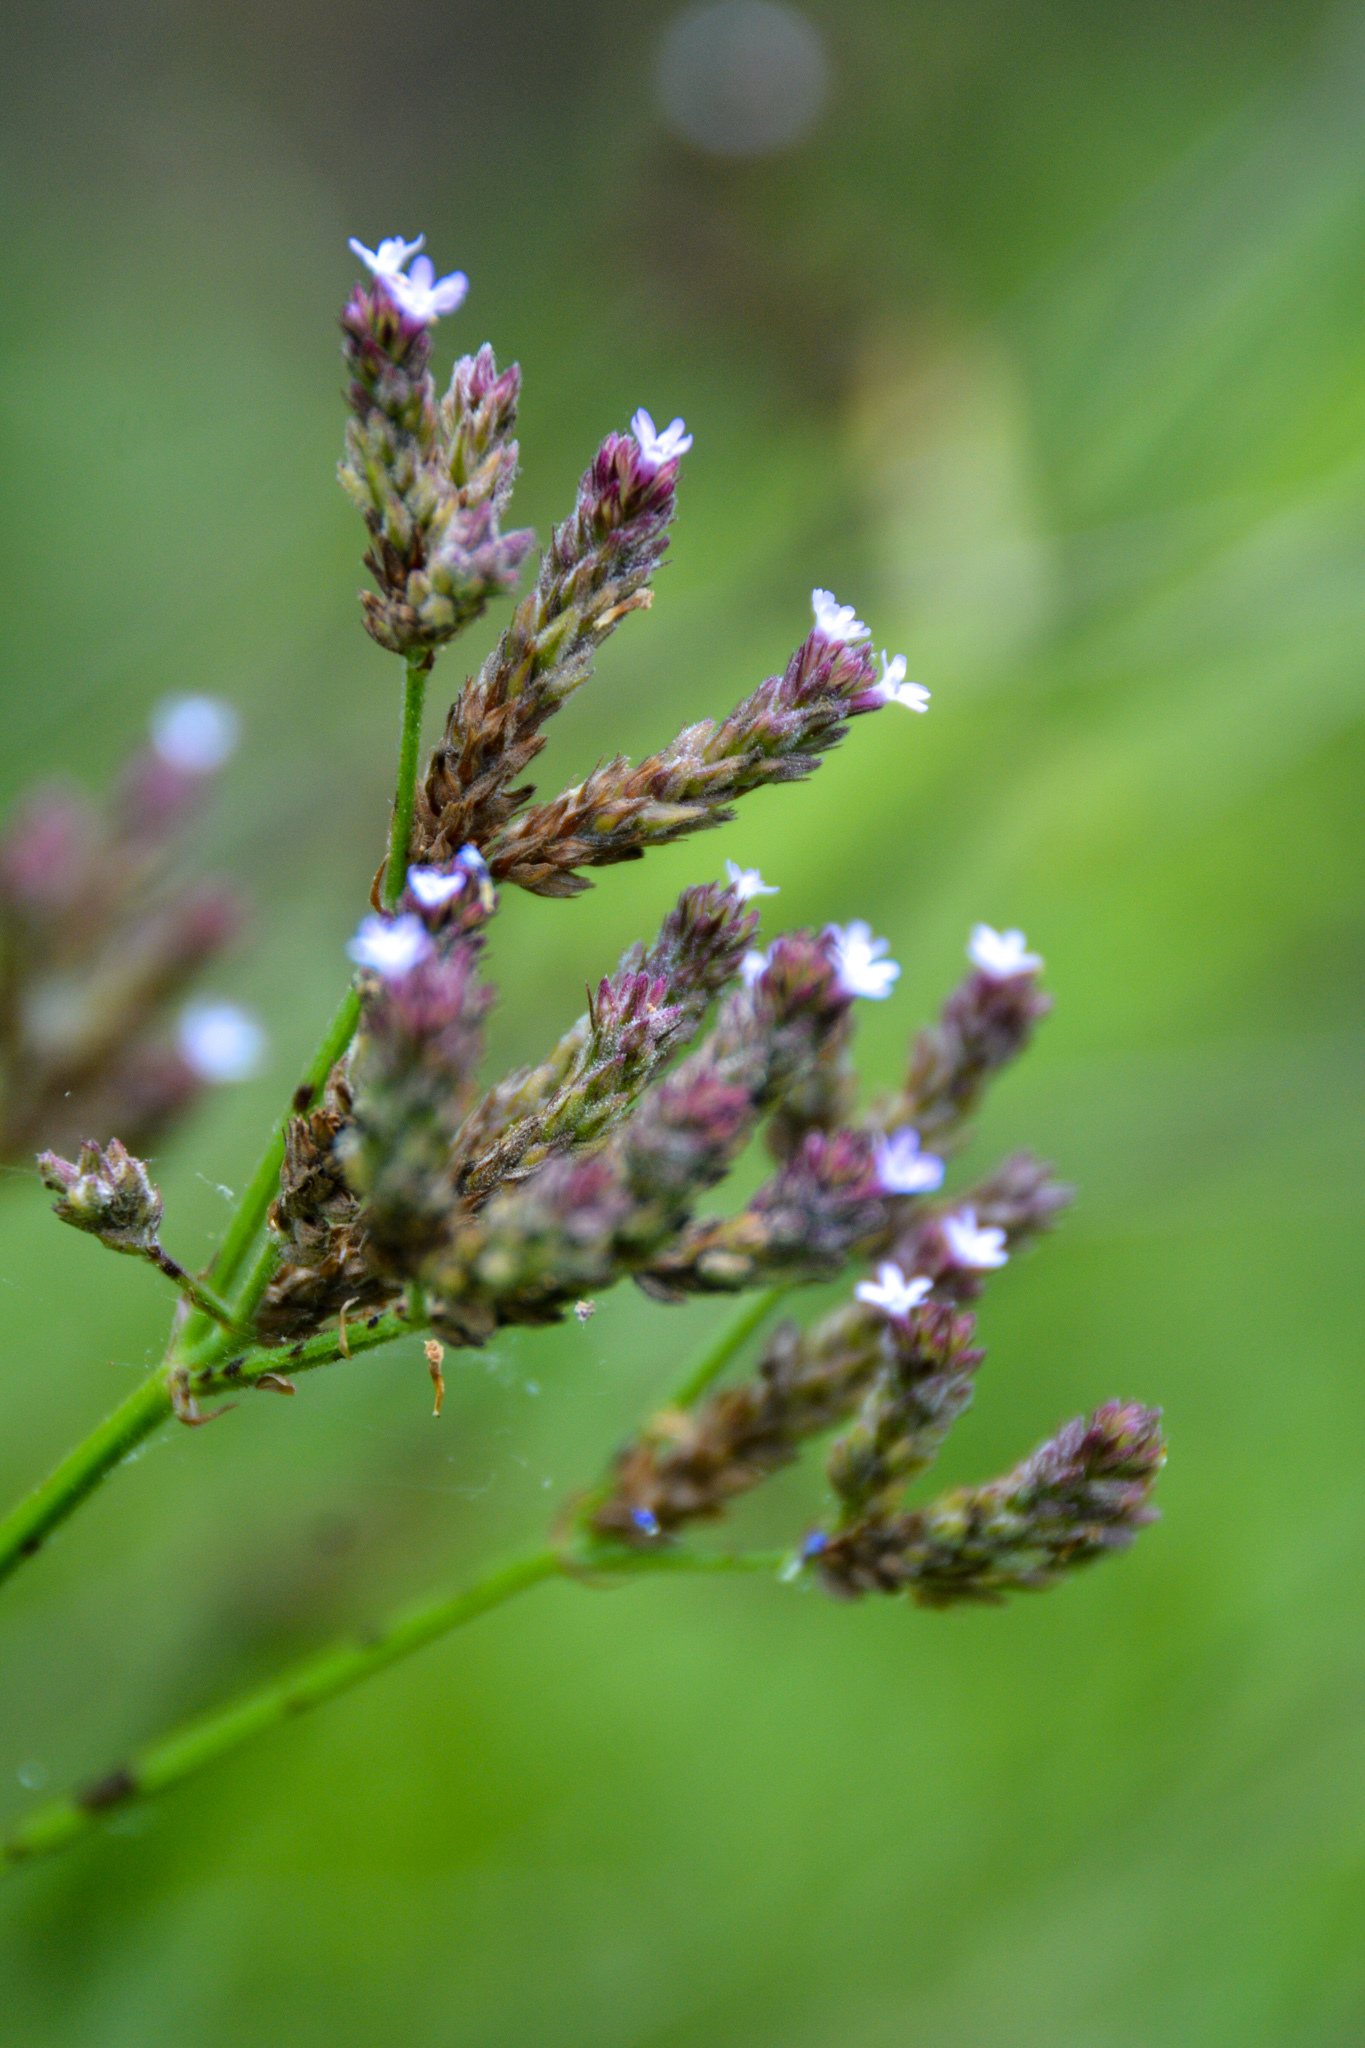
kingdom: Plantae
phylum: Tracheophyta
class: Magnoliopsida
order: Lamiales
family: Verbenaceae
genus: Verbena
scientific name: Verbena brasiliensis
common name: Brazilian vervain
